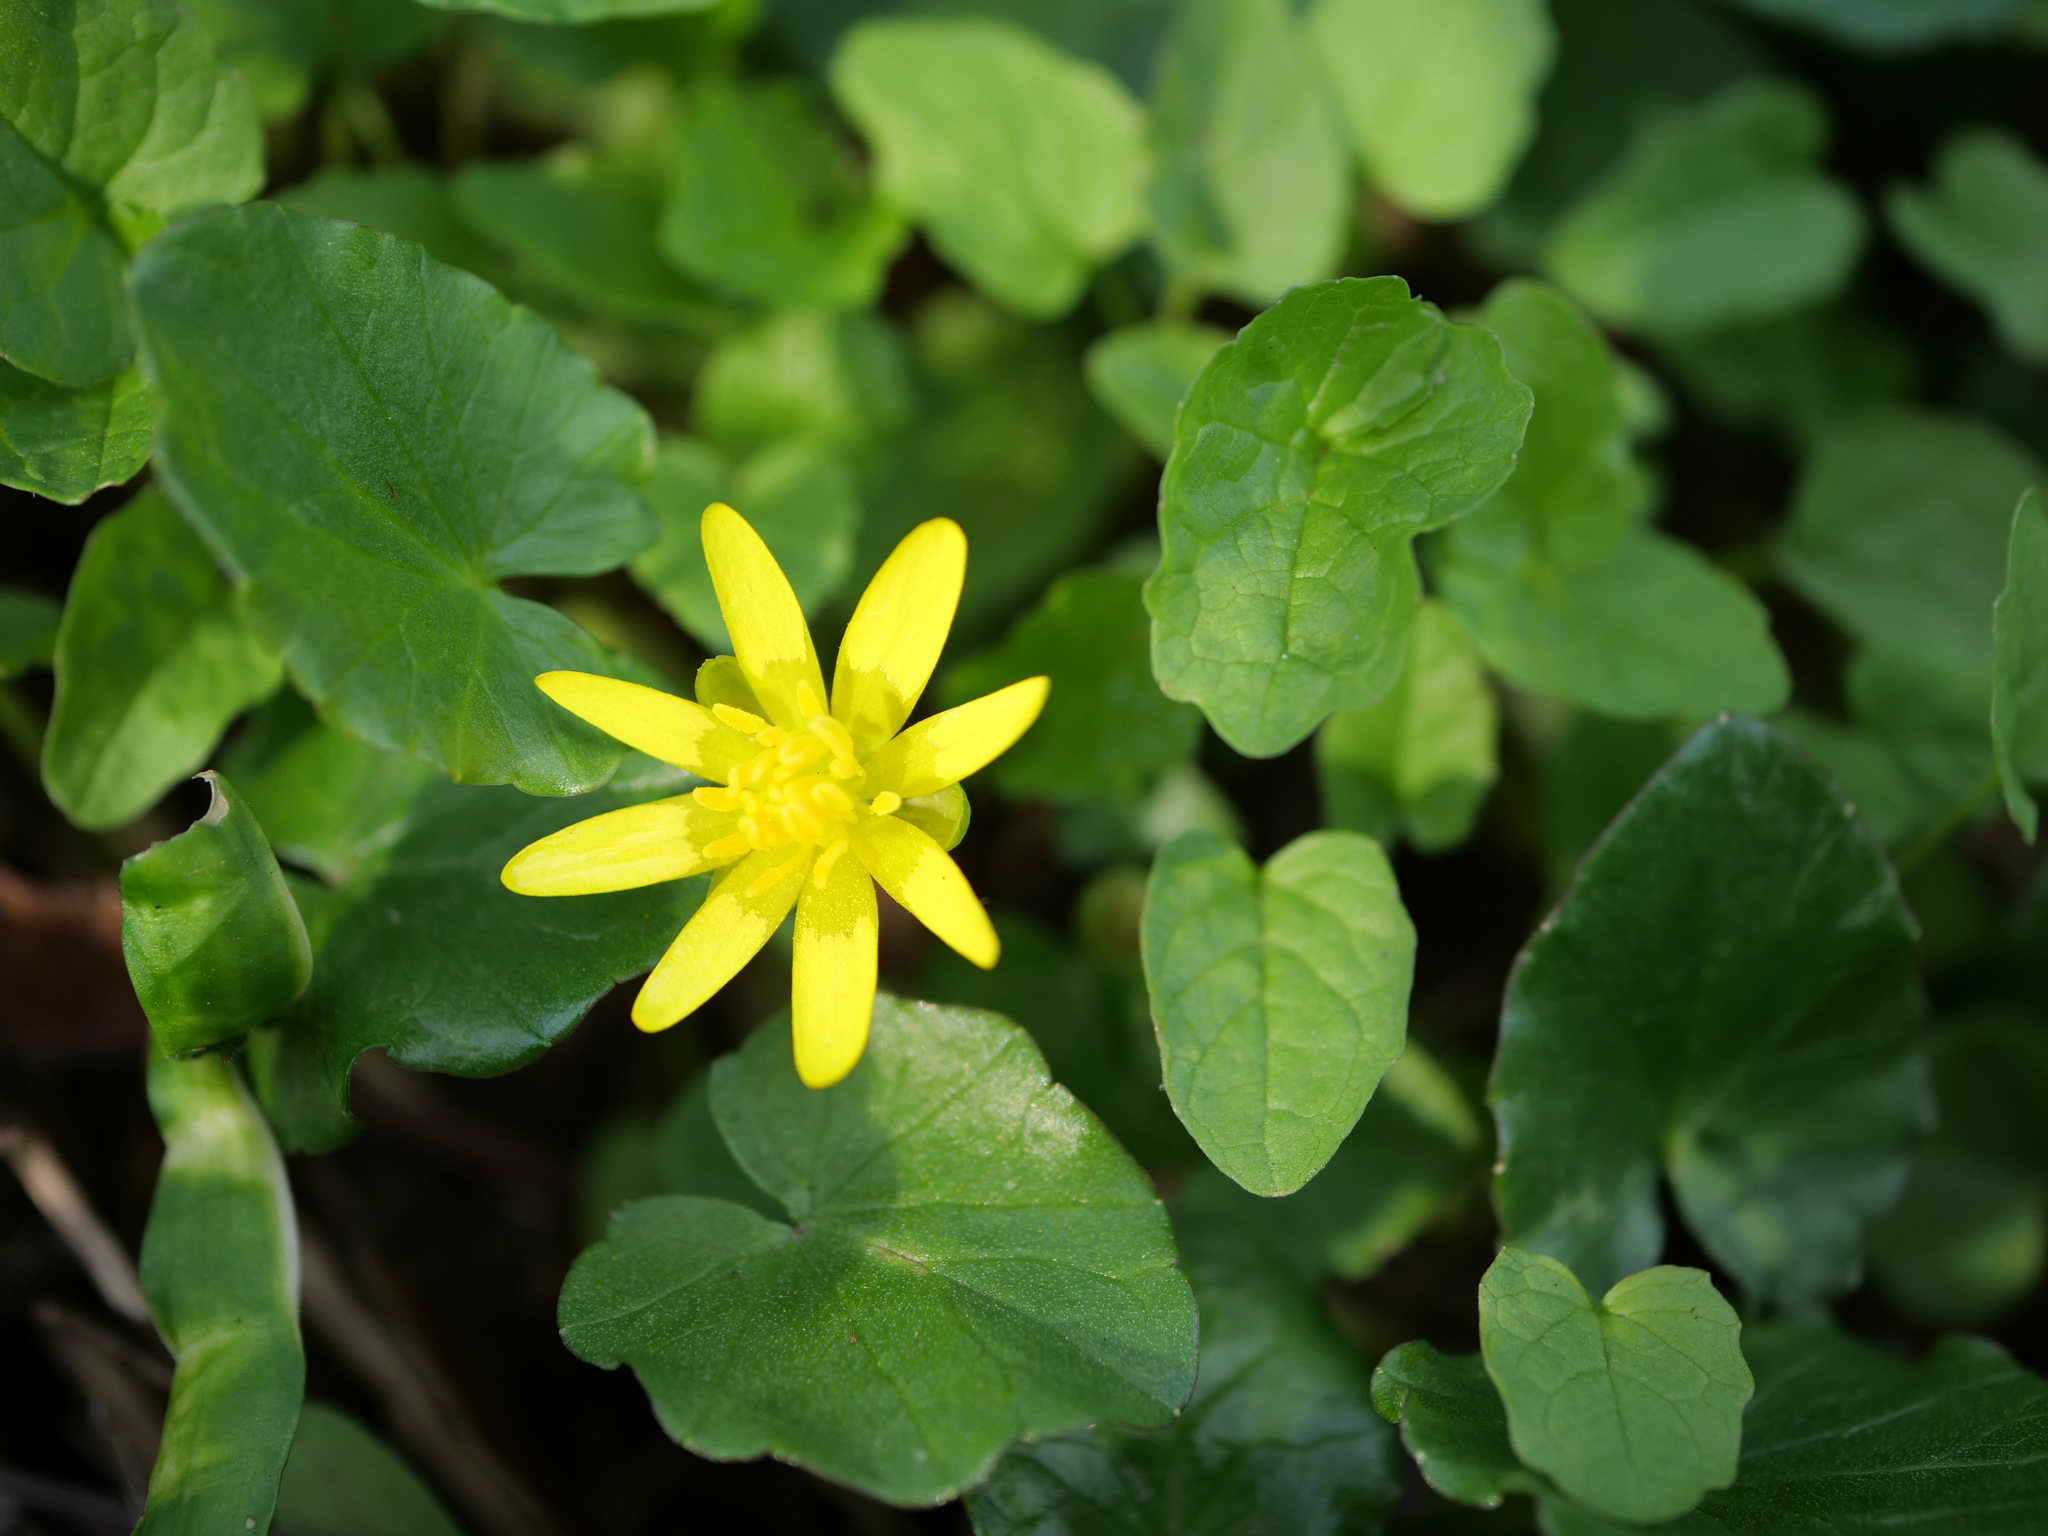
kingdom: Plantae
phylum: Tracheophyta
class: Magnoliopsida
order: Ranunculales
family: Ranunculaceae
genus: Ficaria
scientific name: Ficaria verna
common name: Lesser celandine
